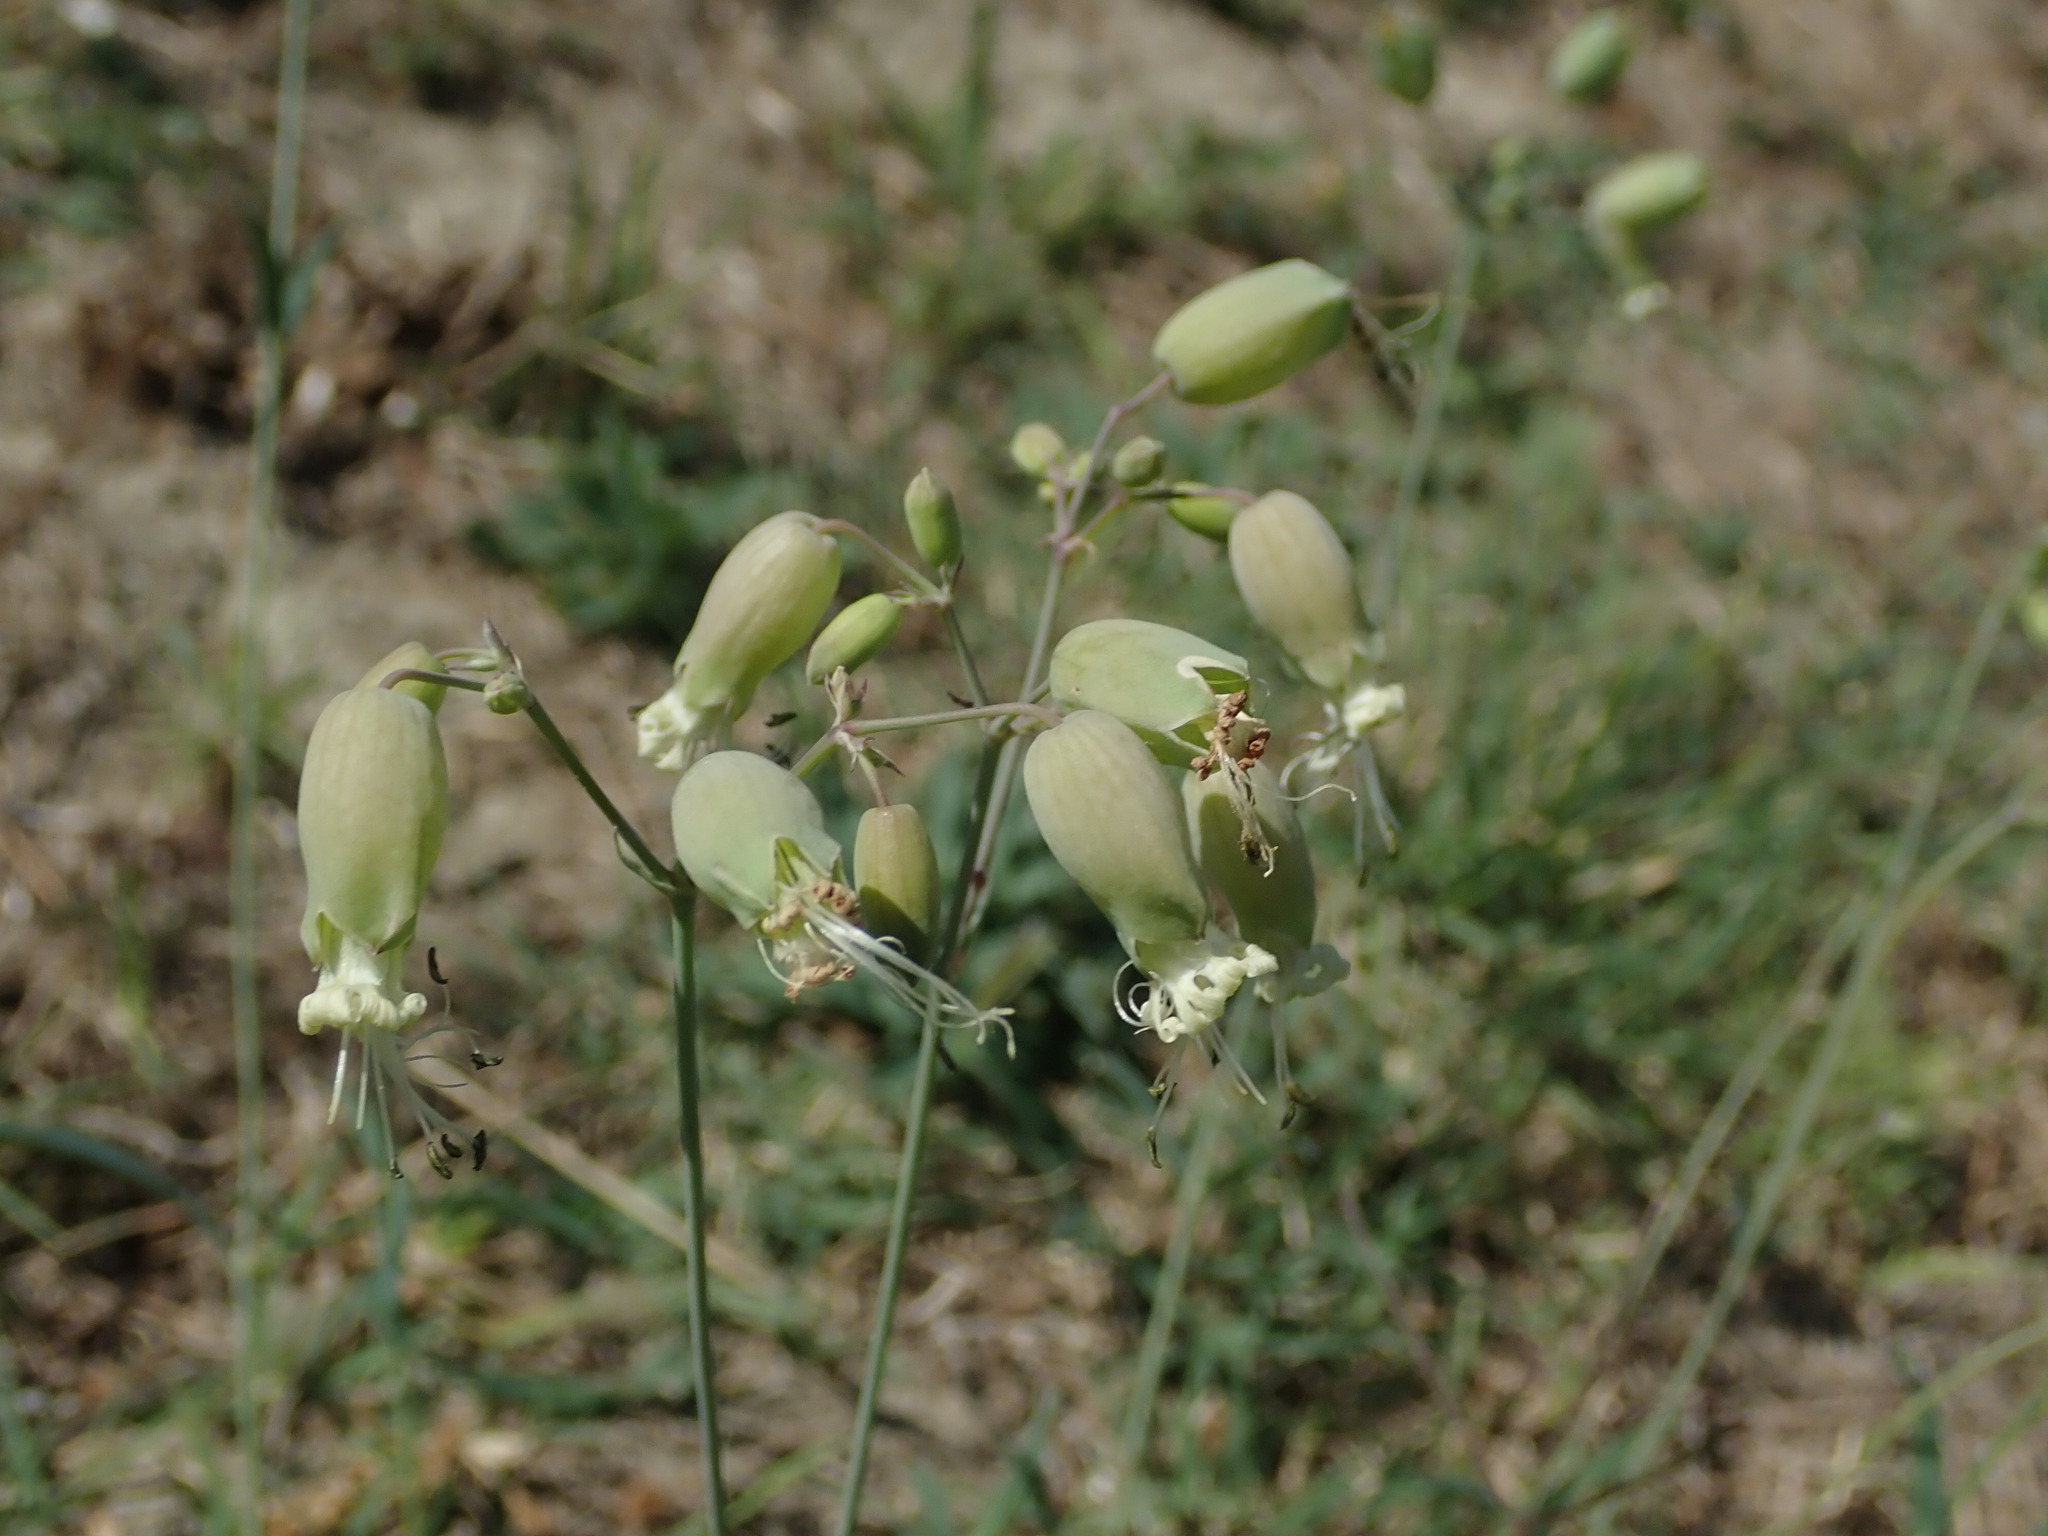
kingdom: Plantae
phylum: Tracheophyta
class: Magnoliopsida
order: Caryophyllales
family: Caryophyllaceae
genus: Silene
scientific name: Silene vulgaris
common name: Bladder campion
